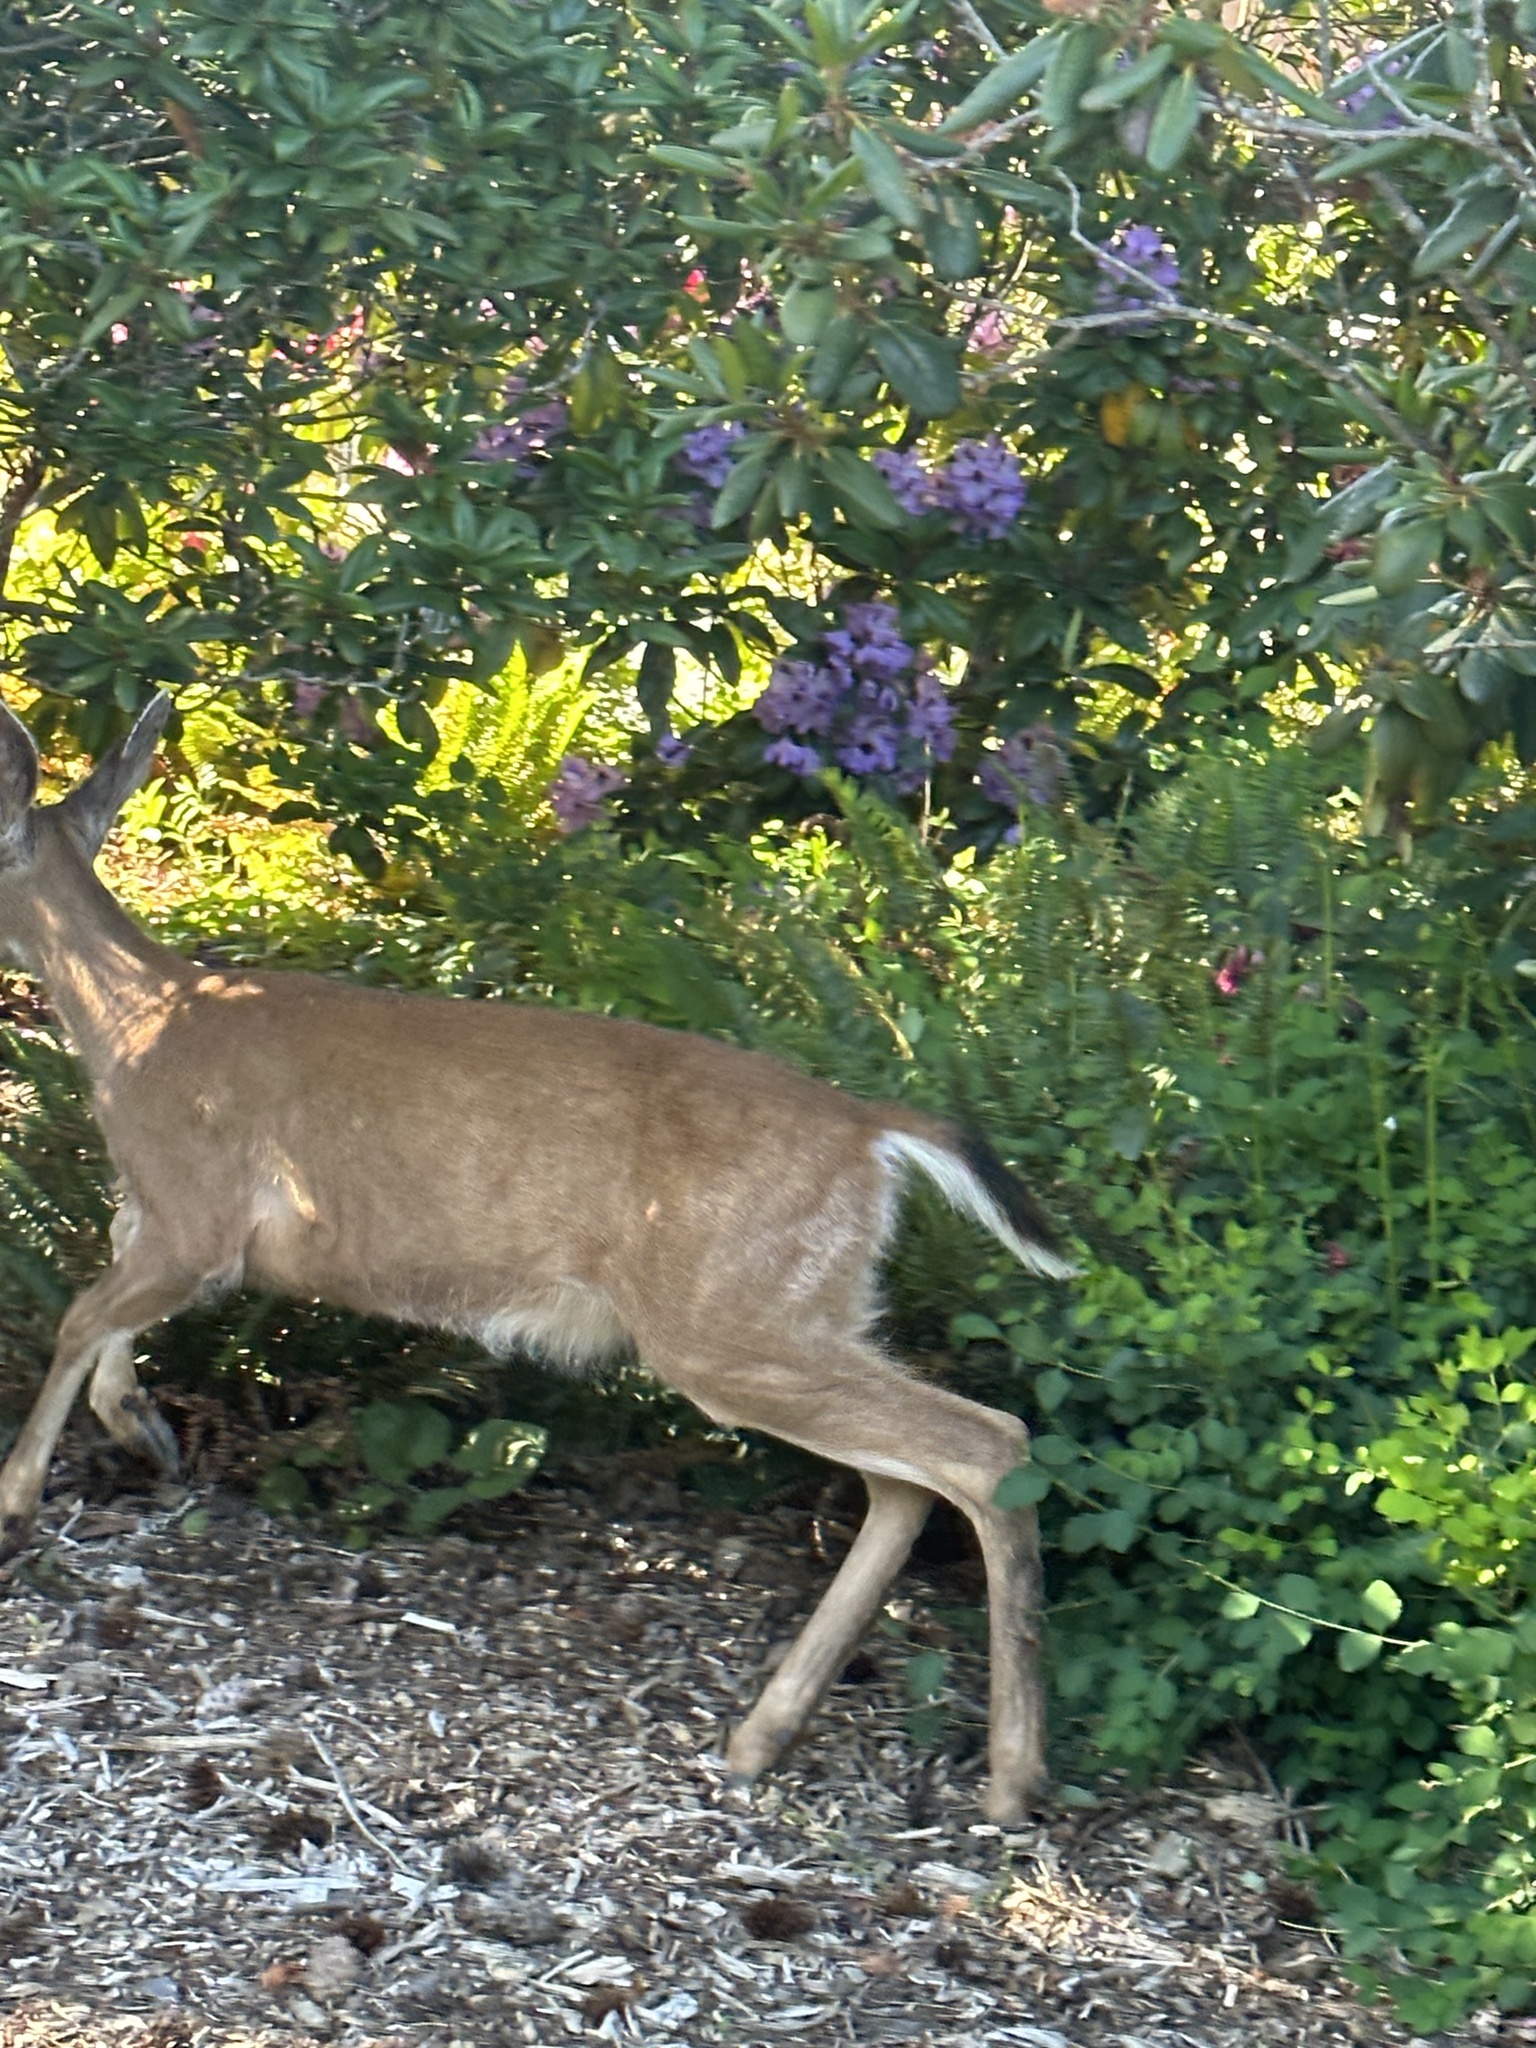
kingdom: Animalia
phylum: Chordata
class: Mammalia
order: Artiodactyla
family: Cervidae
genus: Odocoileus
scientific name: Odocoileus hemionus
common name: Mule deer
